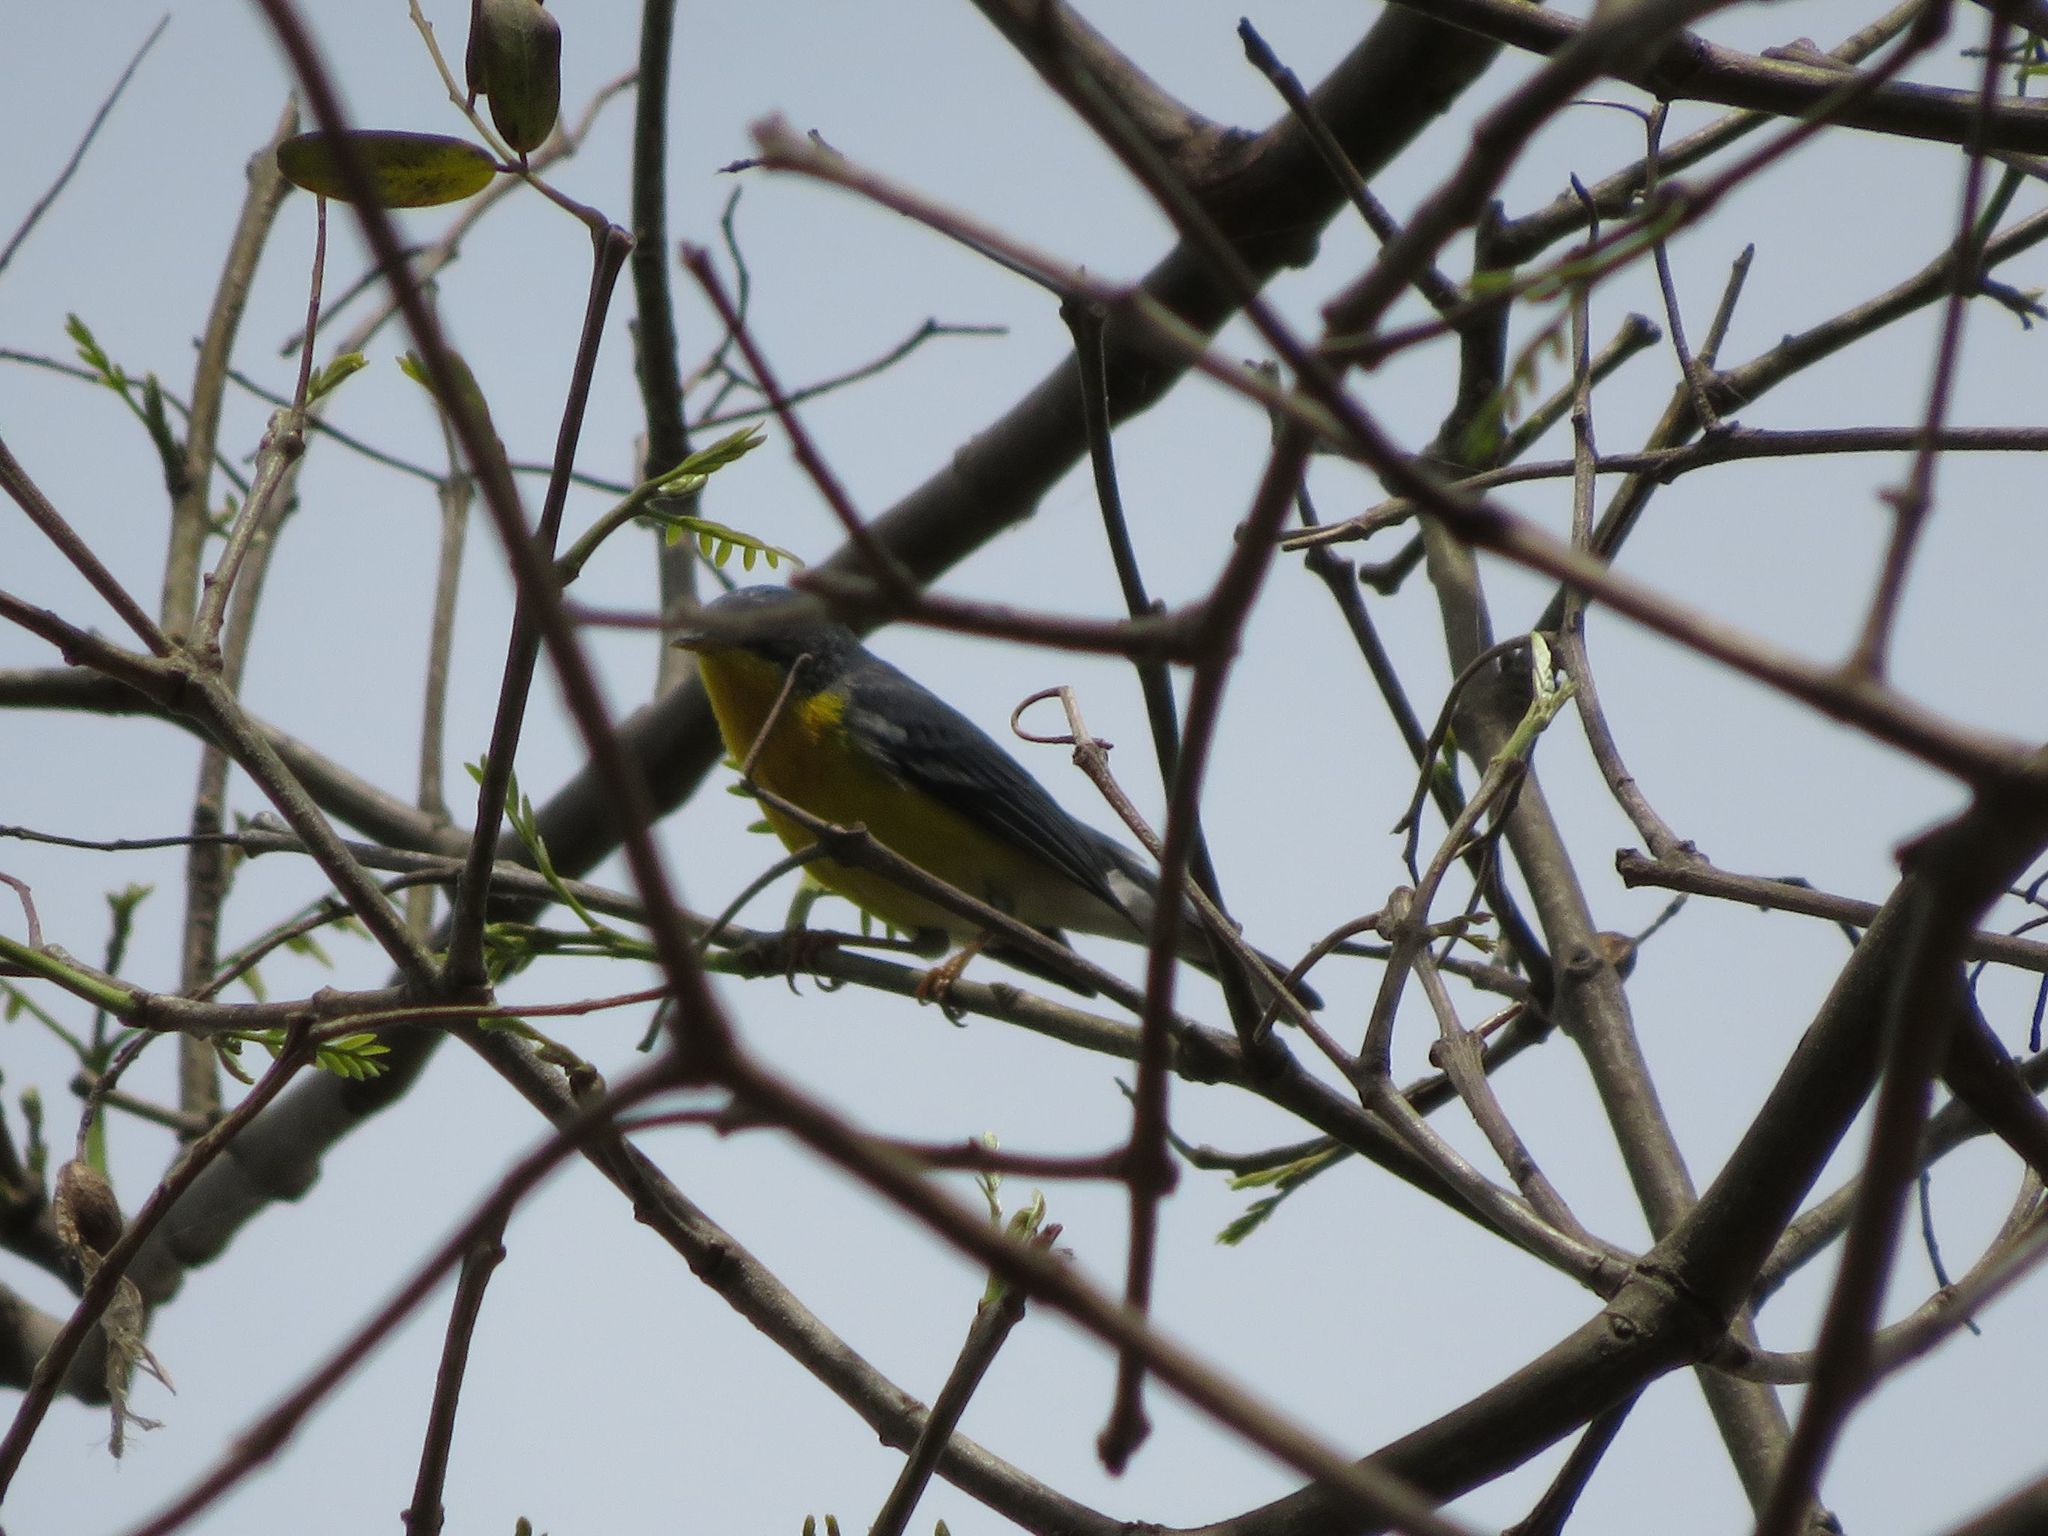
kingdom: Animalia
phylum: Chordata
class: Aves
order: Passeriformes
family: Parulidae
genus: Setophaga
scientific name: Setophaga pitiayumi
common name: Tropical parula
